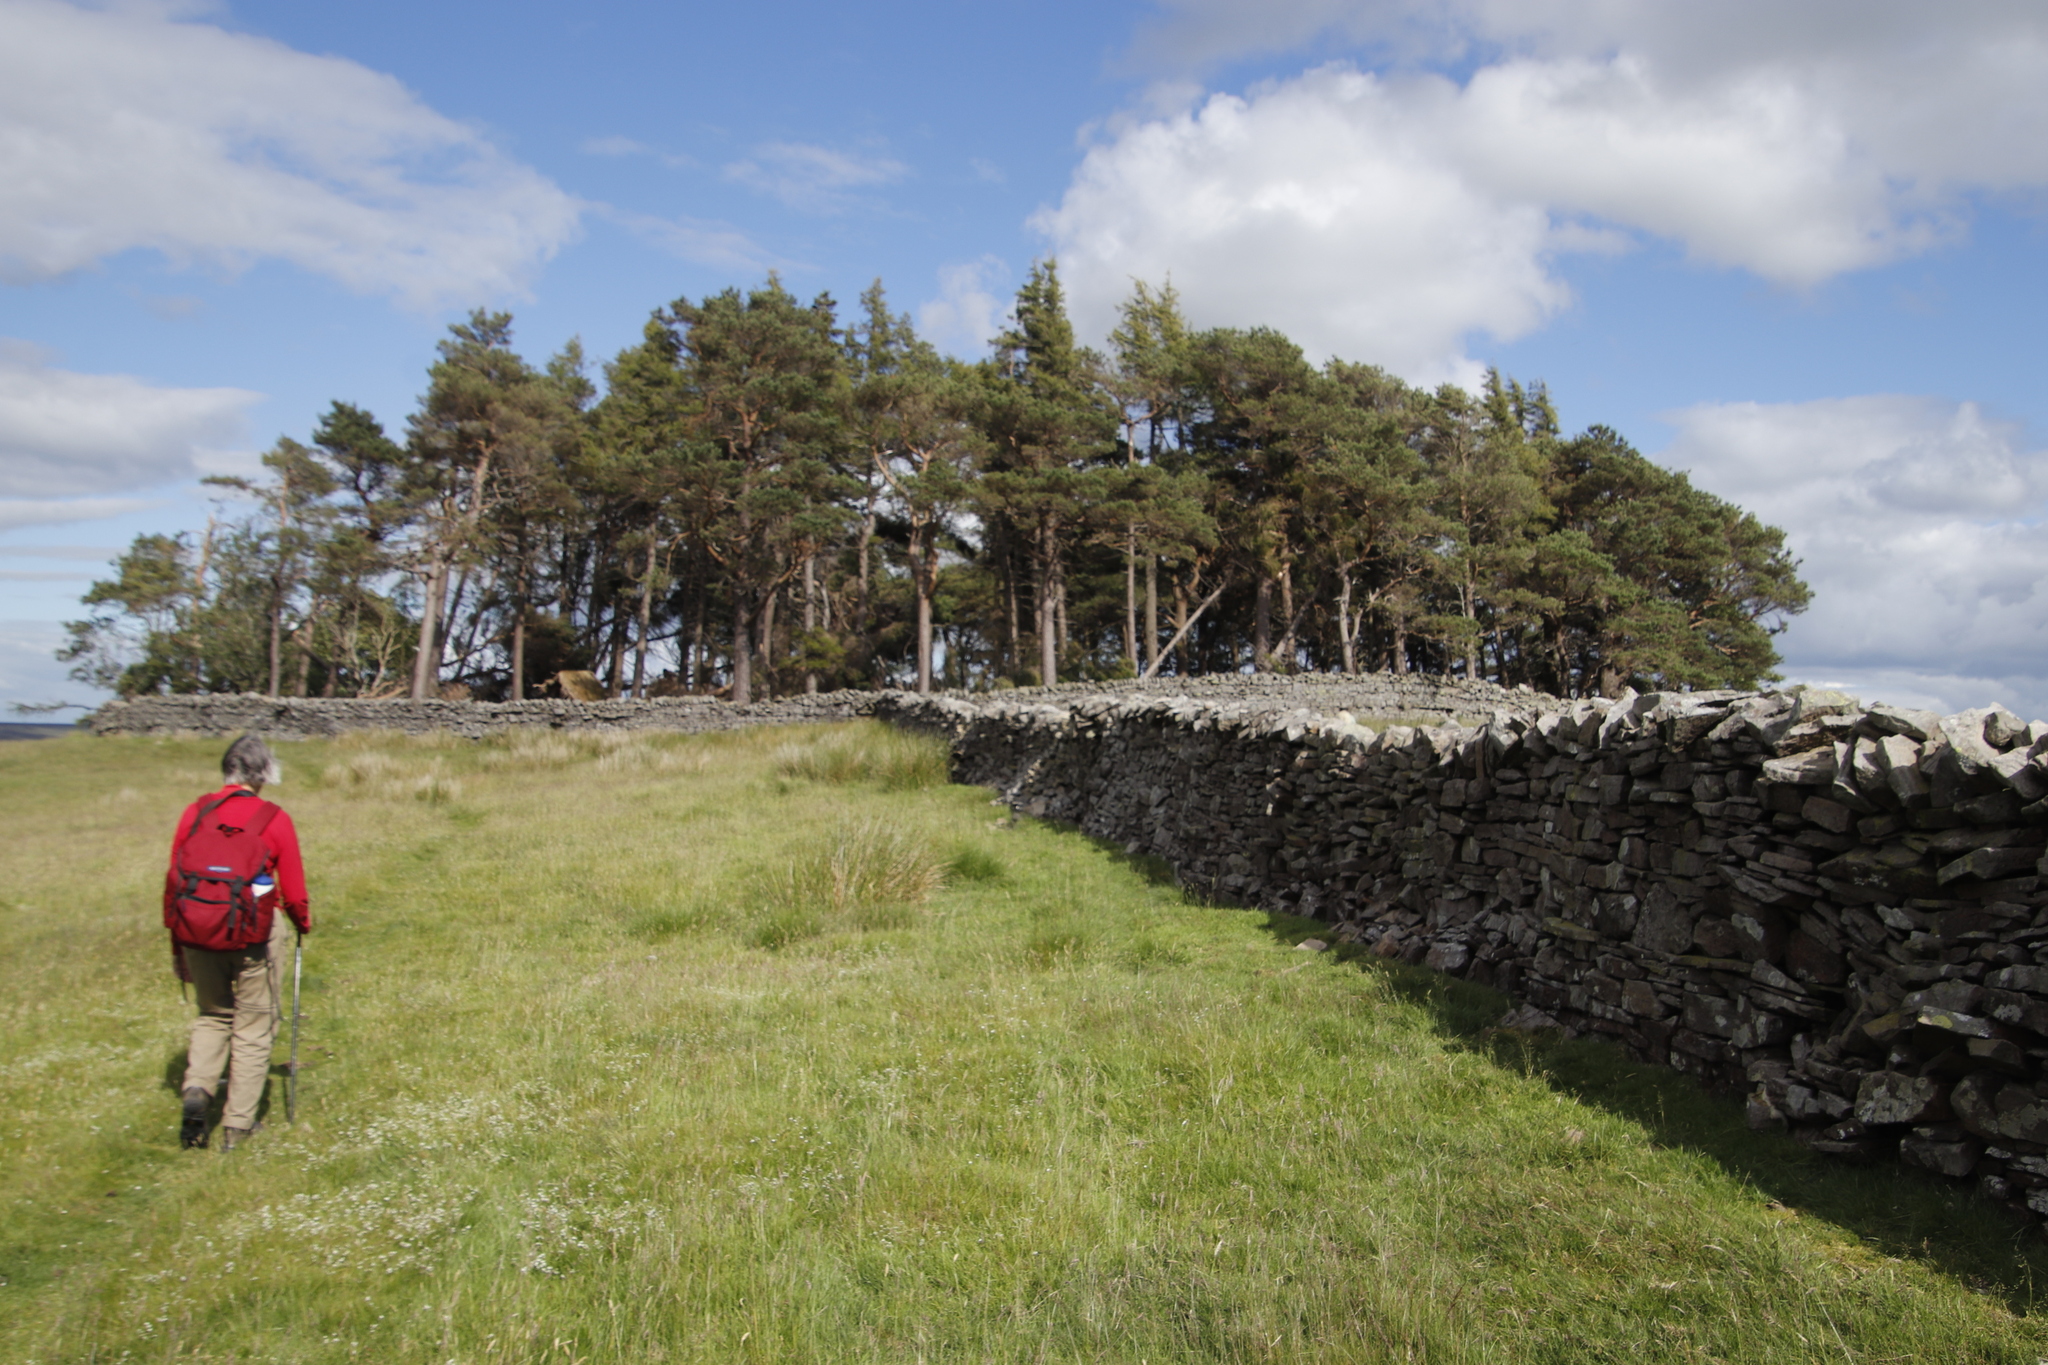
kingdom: Plantae
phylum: Tracheophyta
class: Pinopsida
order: Pinales
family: Pinaceae
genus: Pinus
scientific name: Pinus sylvestris
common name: Scots pine
